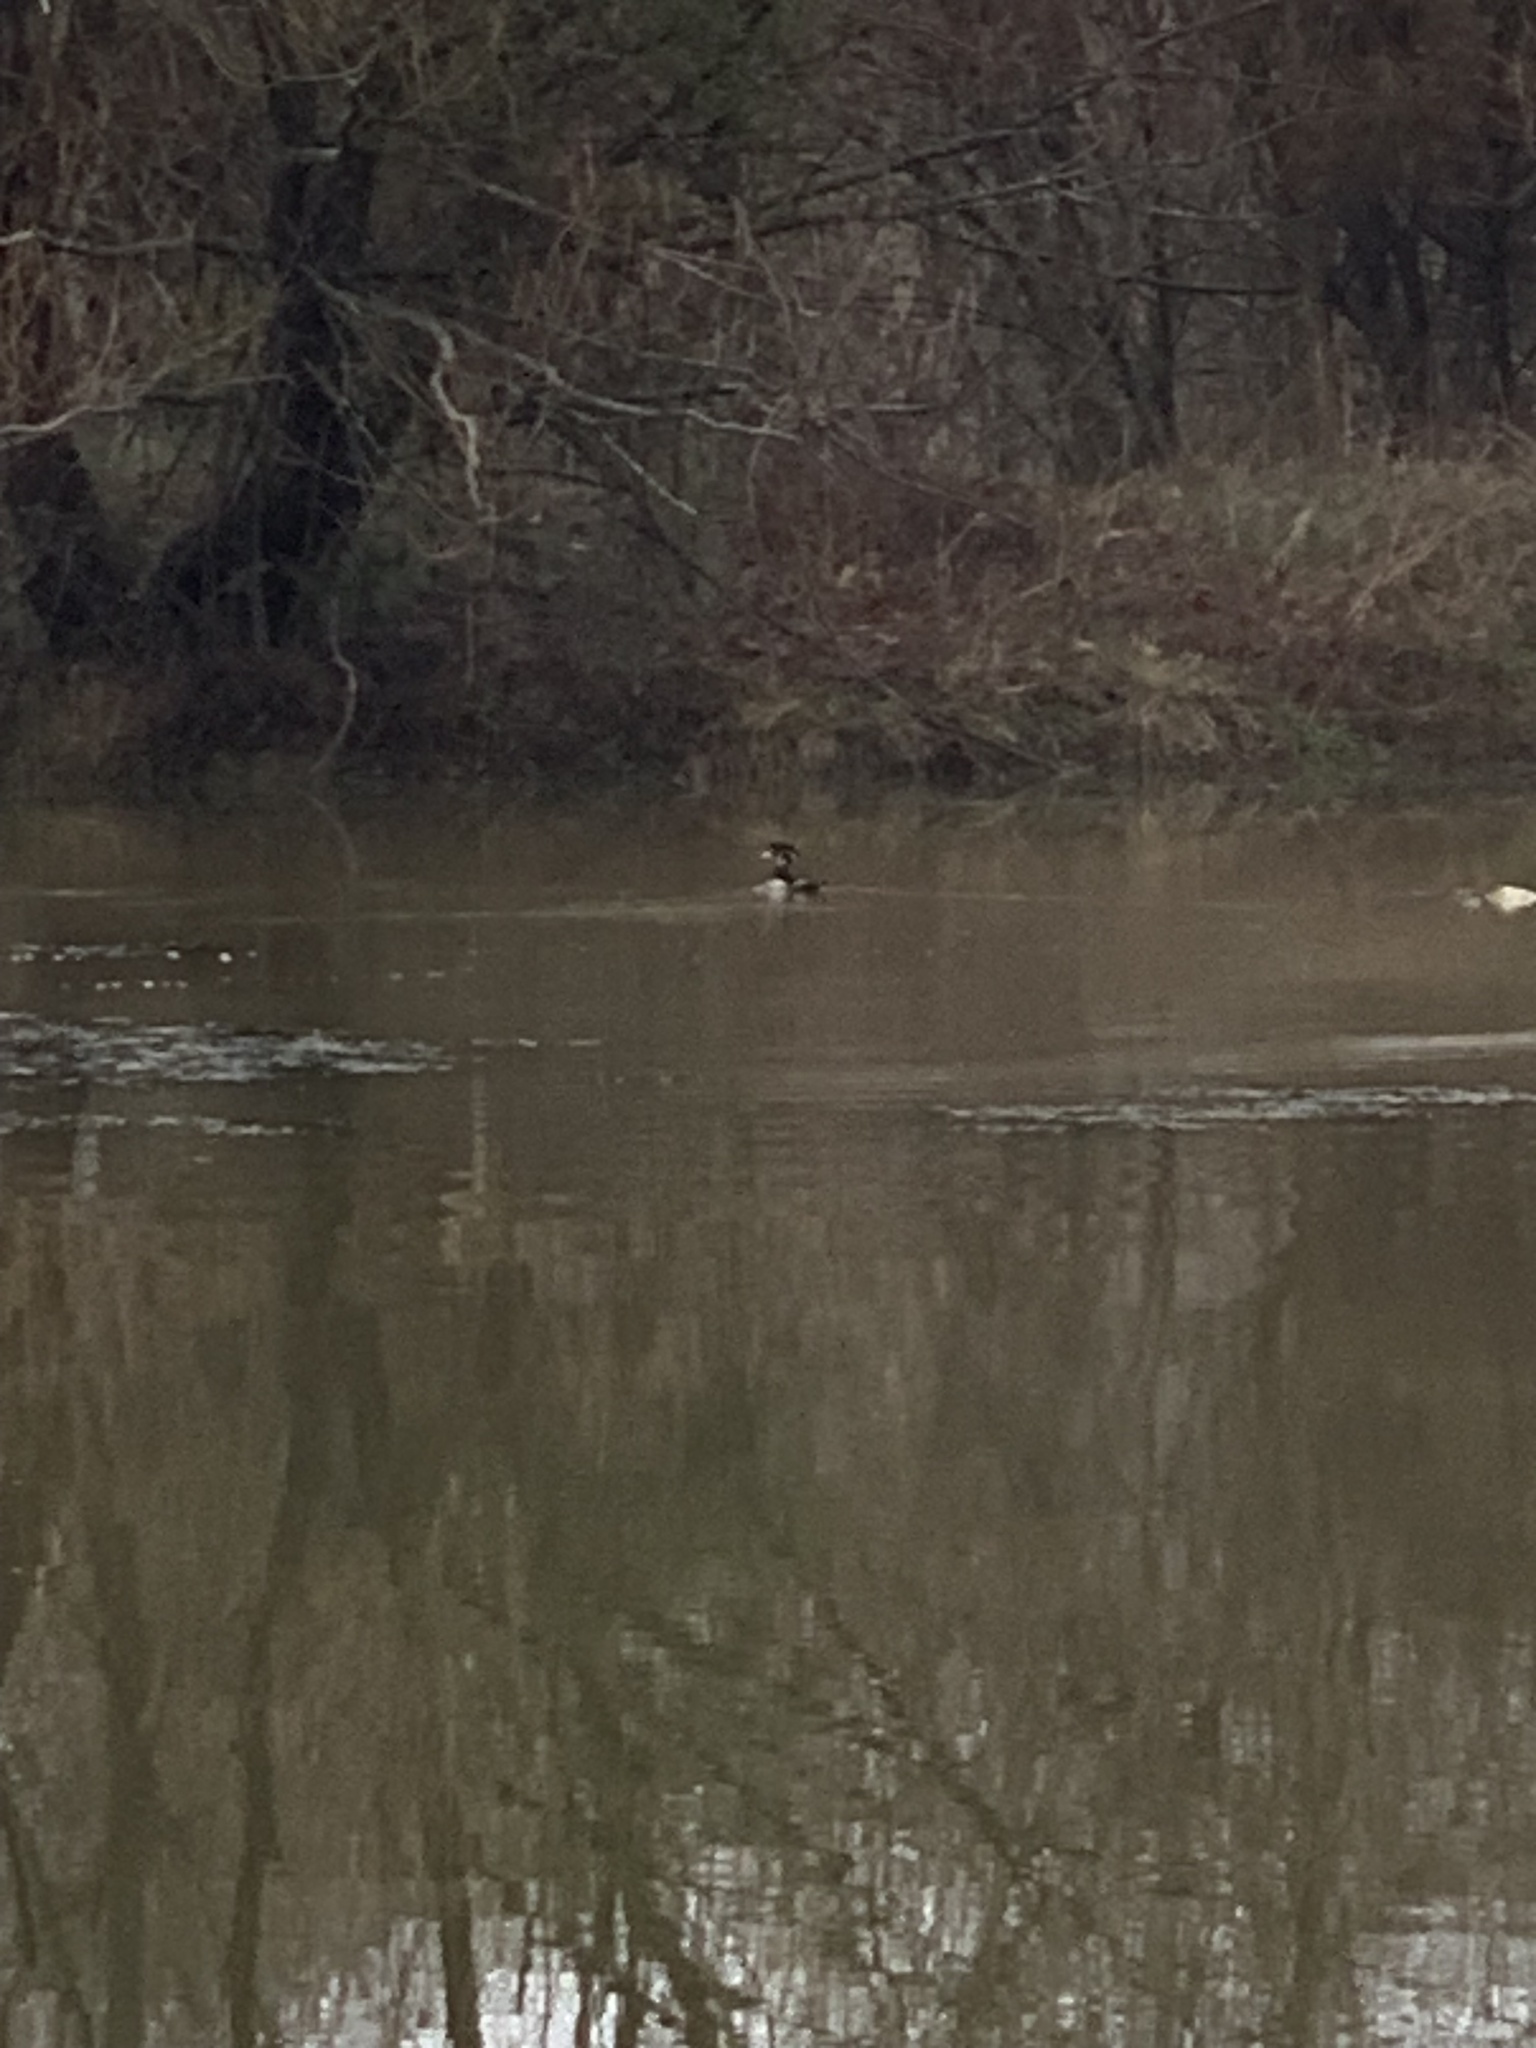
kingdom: Animalia
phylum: Chordata
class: Aves
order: Anseriformes
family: Anatidae
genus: Aix
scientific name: Aix sponsa
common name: Wood duck
